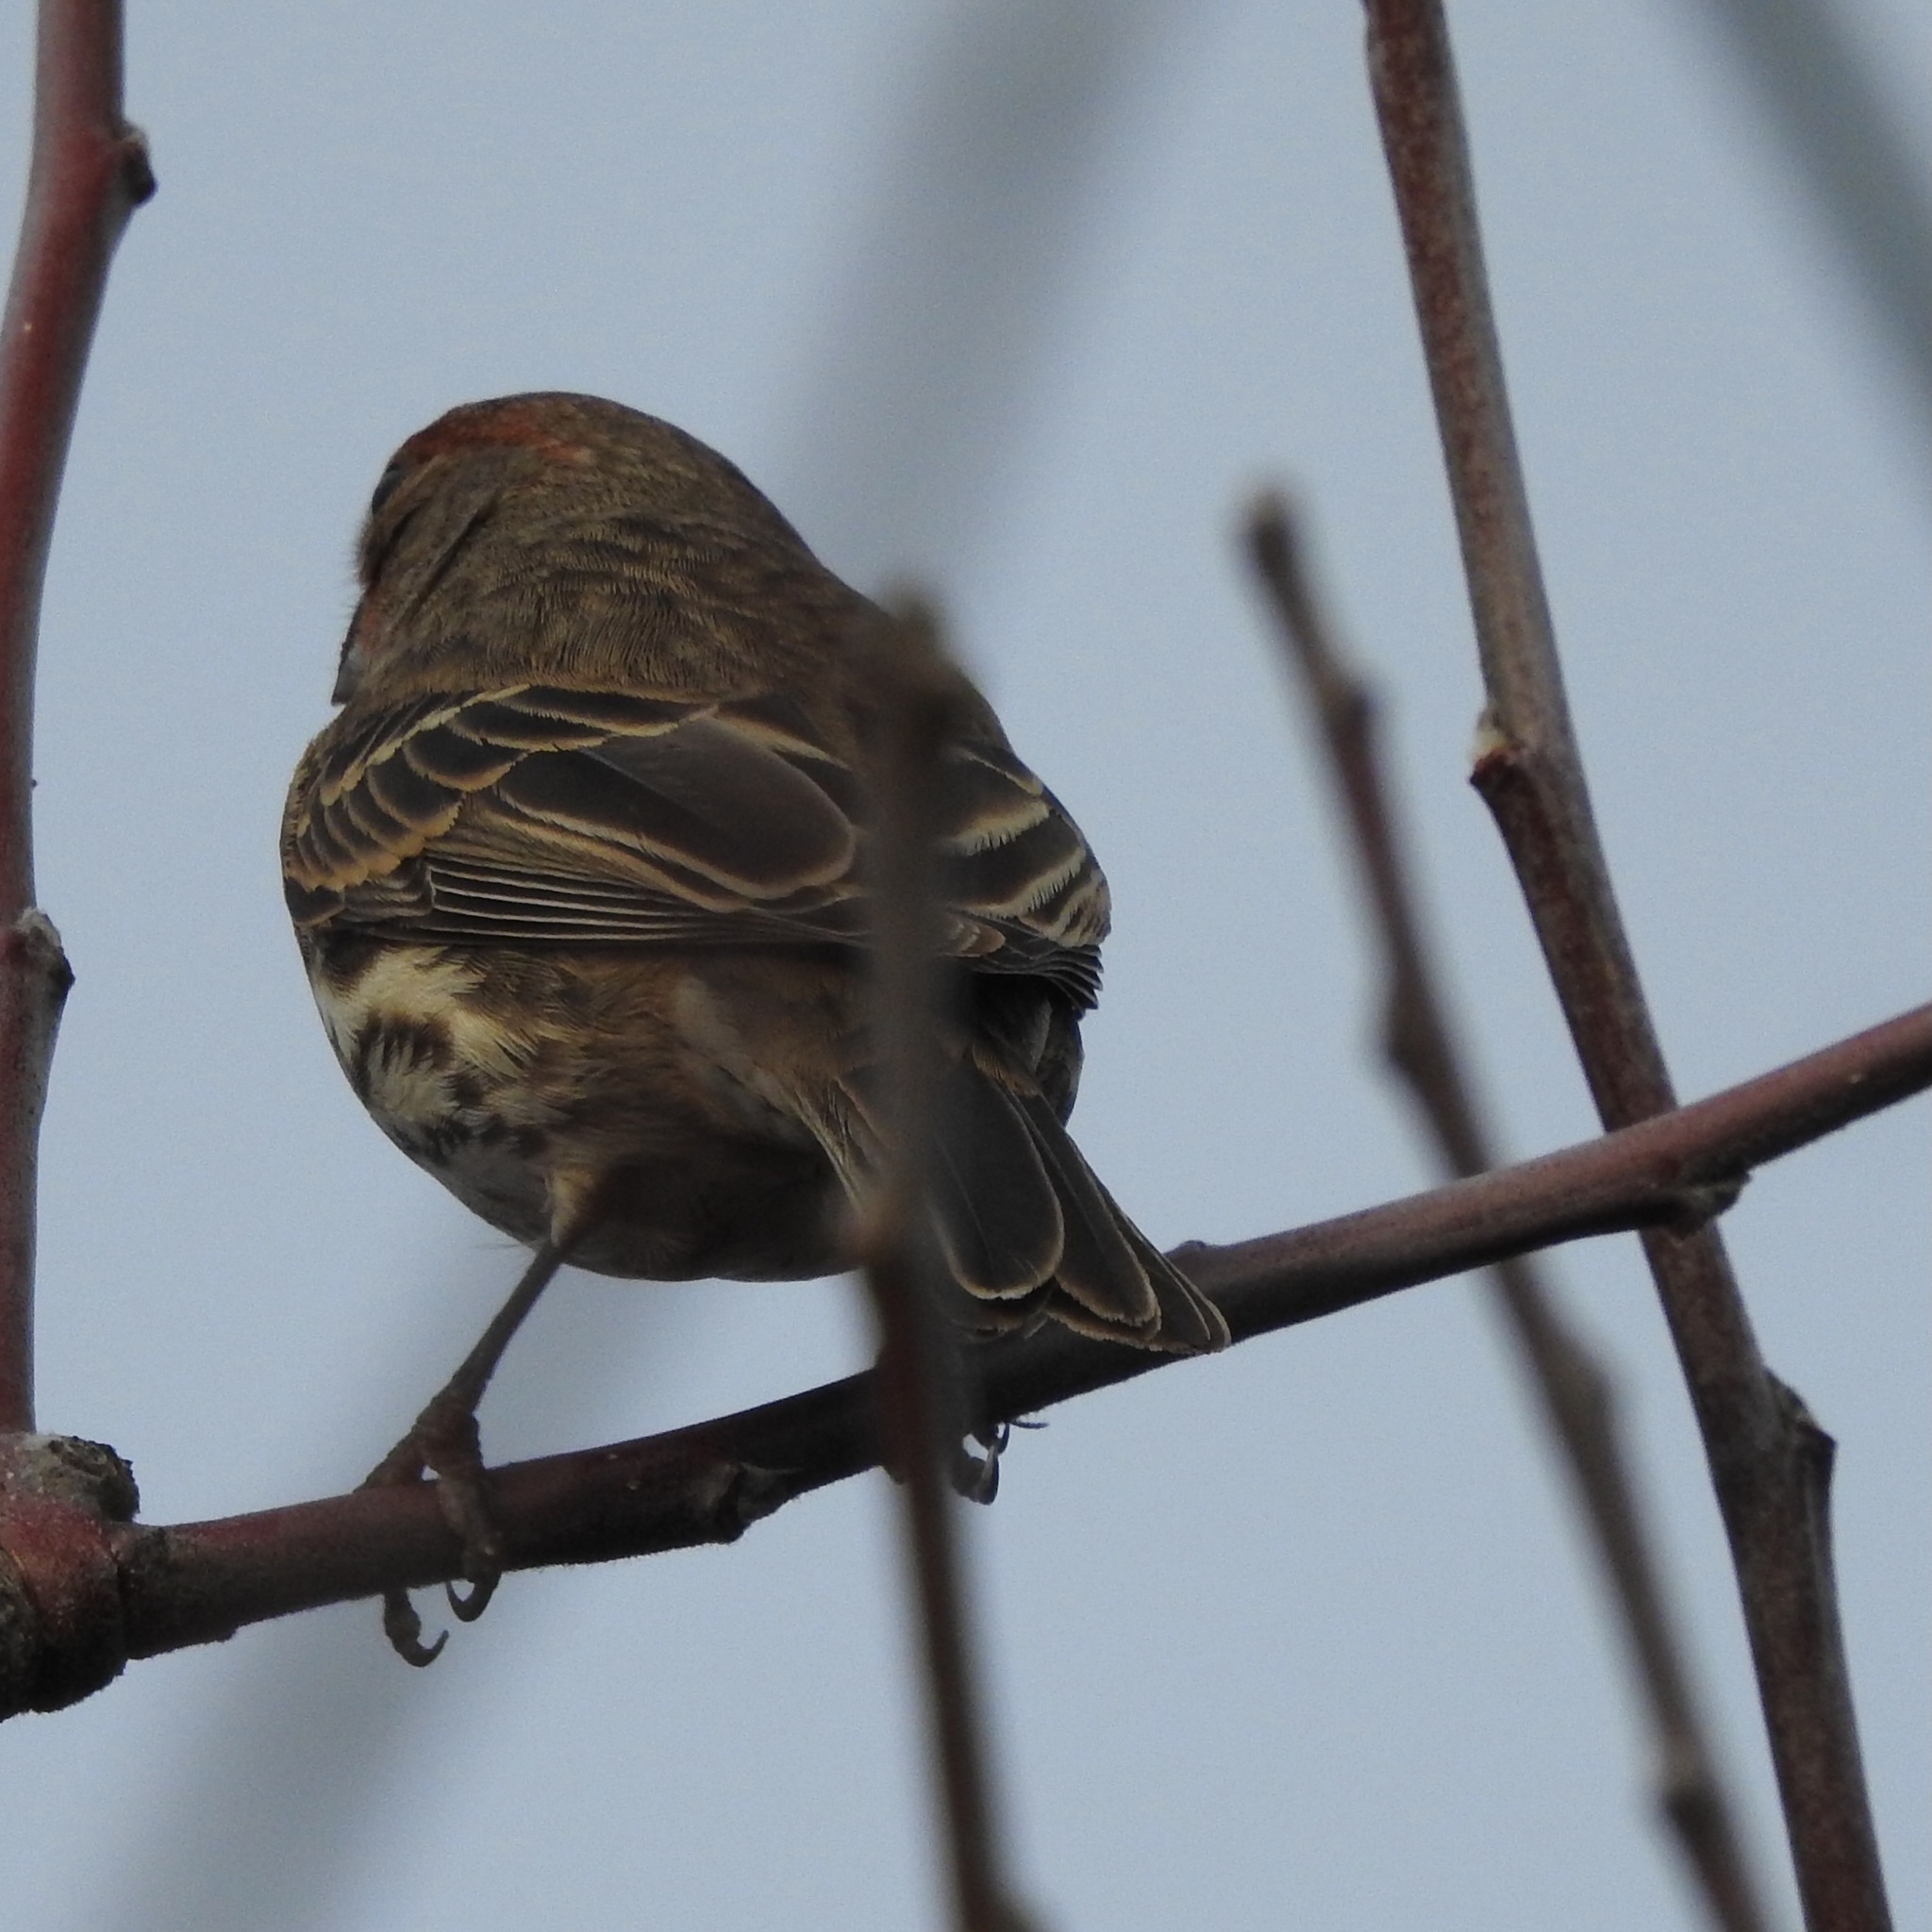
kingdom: Animalia
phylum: Chordata
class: Aves
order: Passeriformes
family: Fringillidae
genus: Haemorhous
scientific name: Haemorhous mexicanus
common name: House finch
